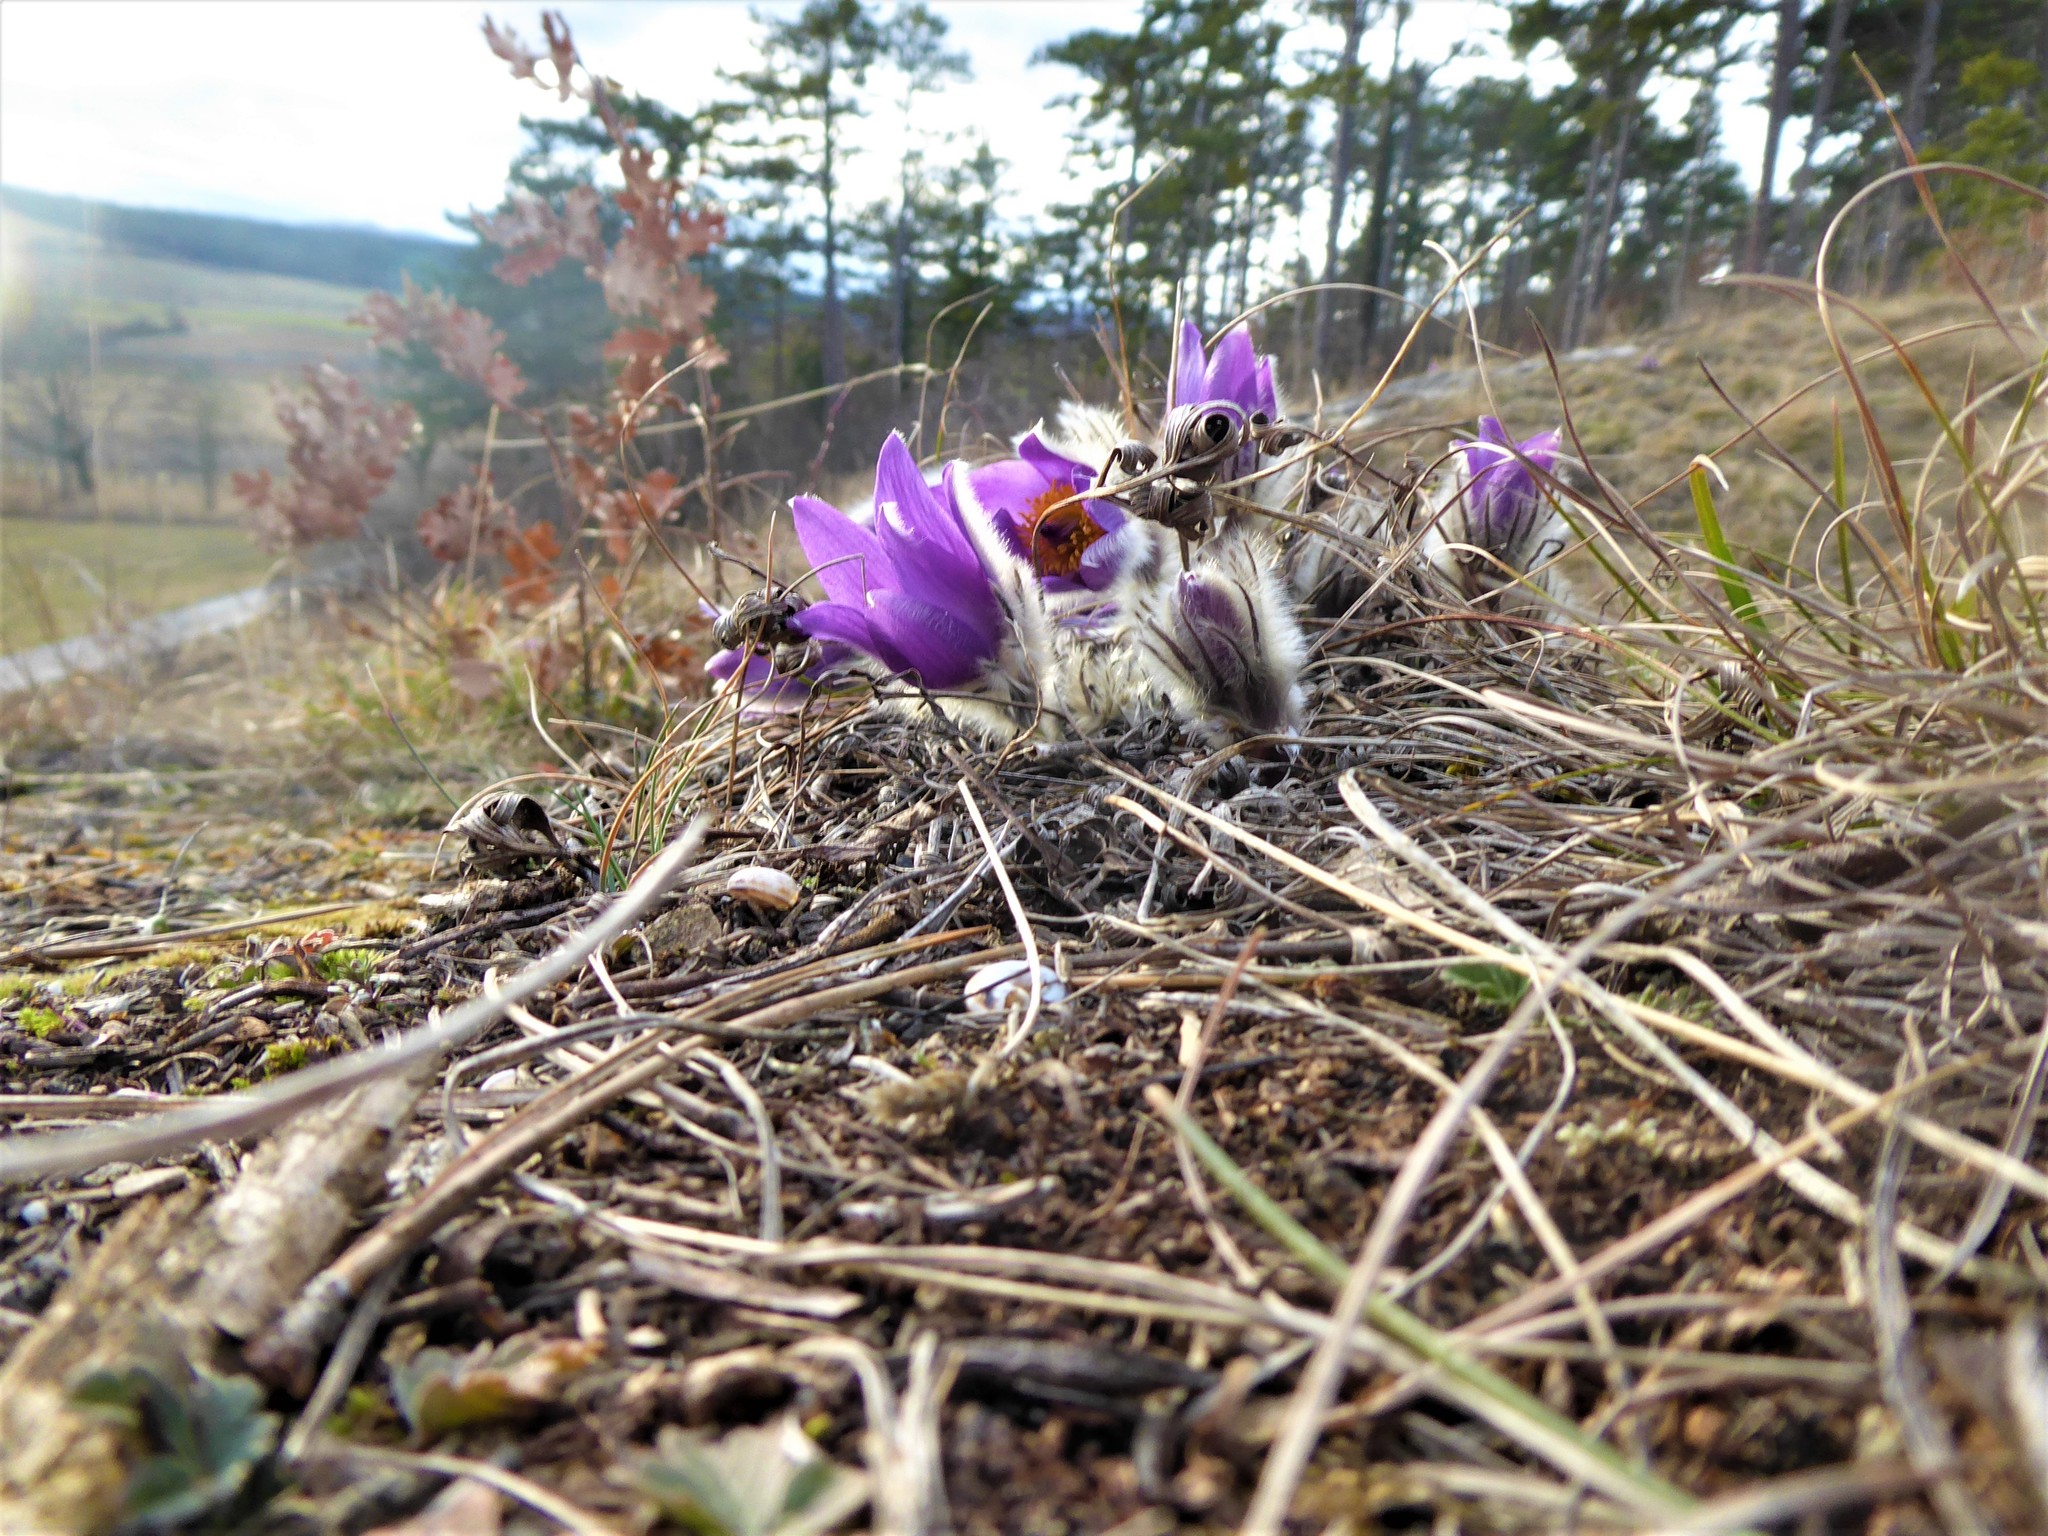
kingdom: Plantae
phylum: Tracheophyta
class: Magnoliopsida
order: Ranunculales
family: Ranunculaceae
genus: Pulsatilla
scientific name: Pulsatilla grandis
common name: Greater pasque flower
